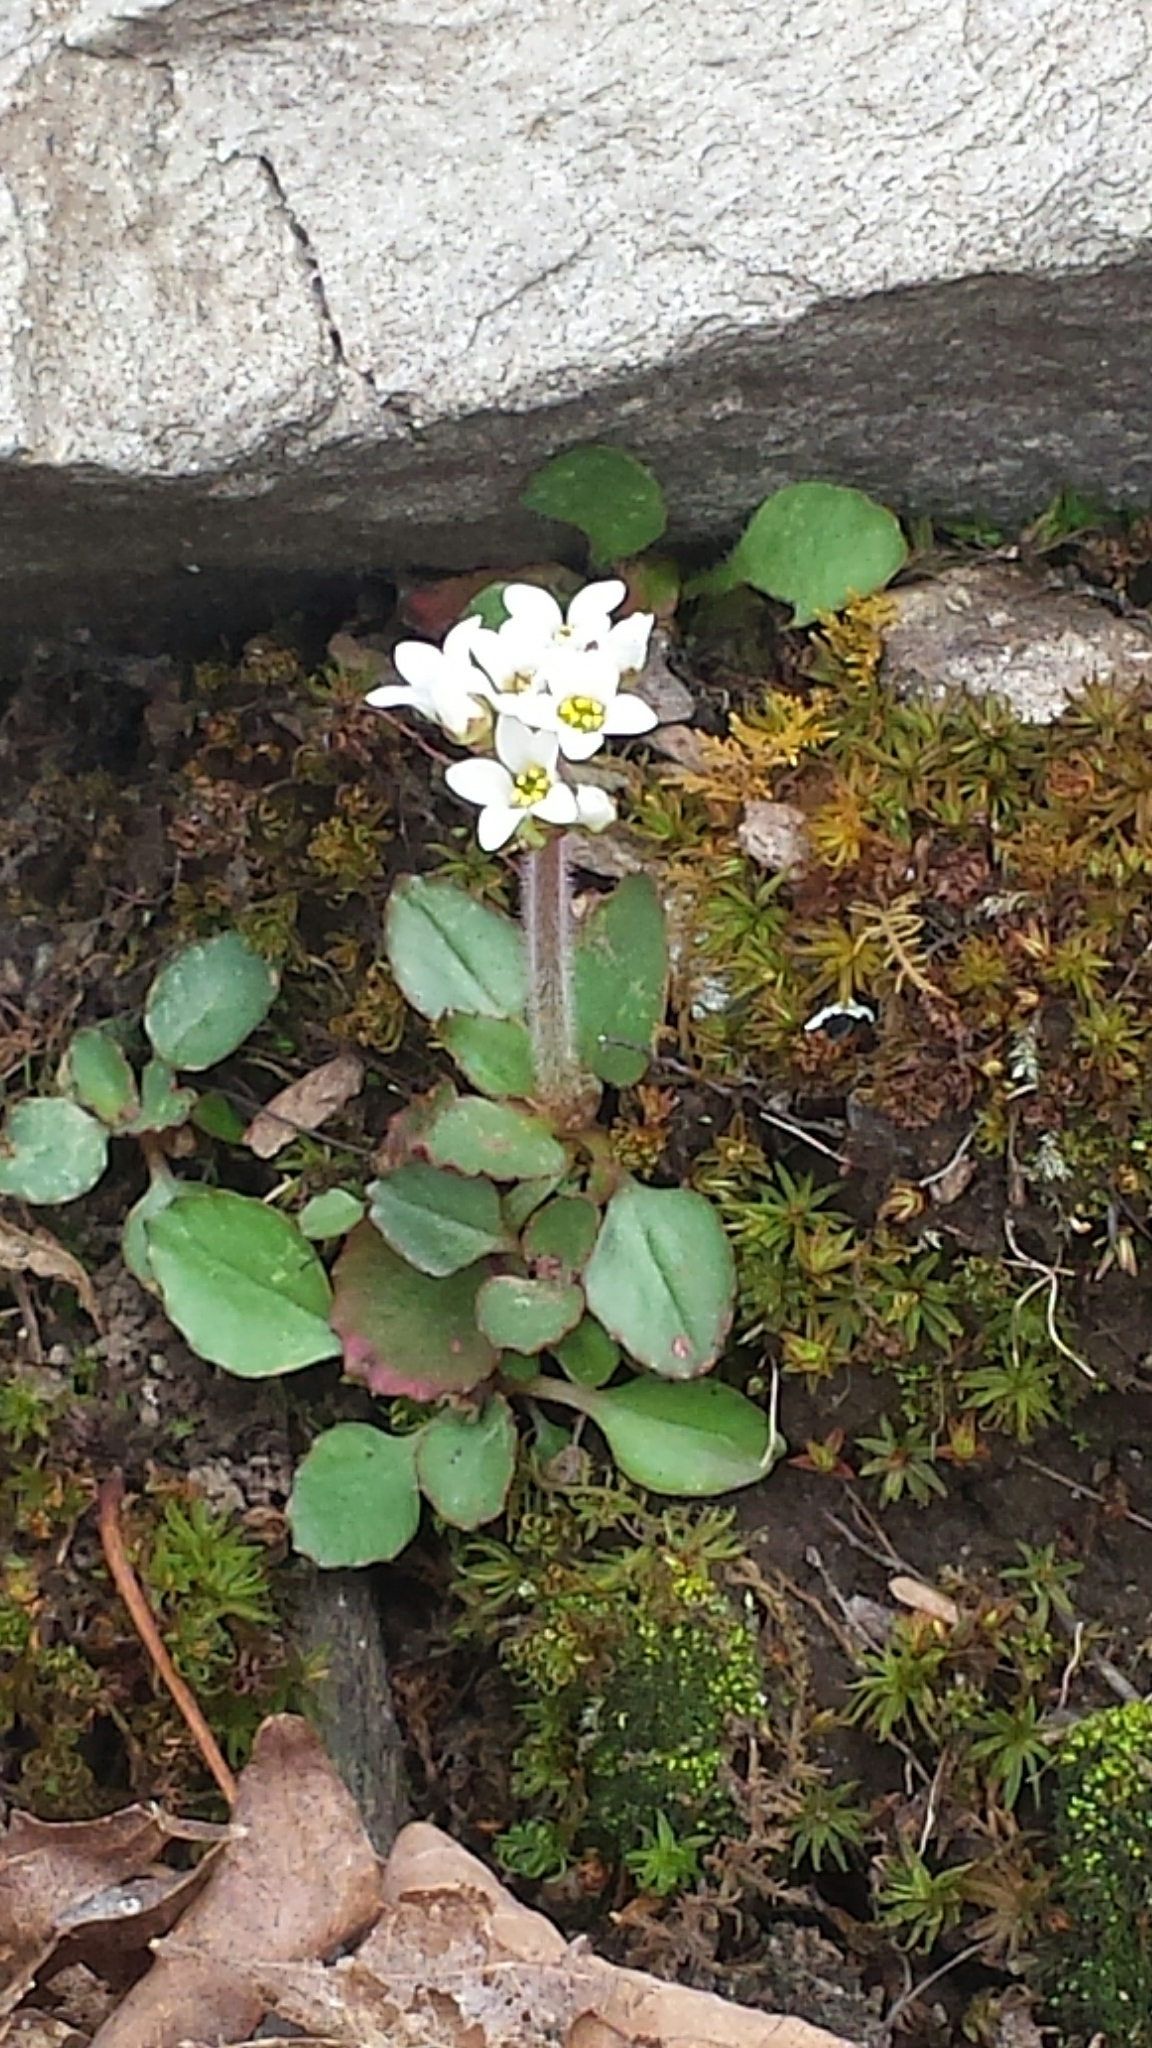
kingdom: Plantae
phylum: Tracheophyta
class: Magnoliopsida
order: Saxifragales
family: Saxifragaceae
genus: Micranthes
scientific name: Micranthes virginiensis
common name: Early saxifrage
